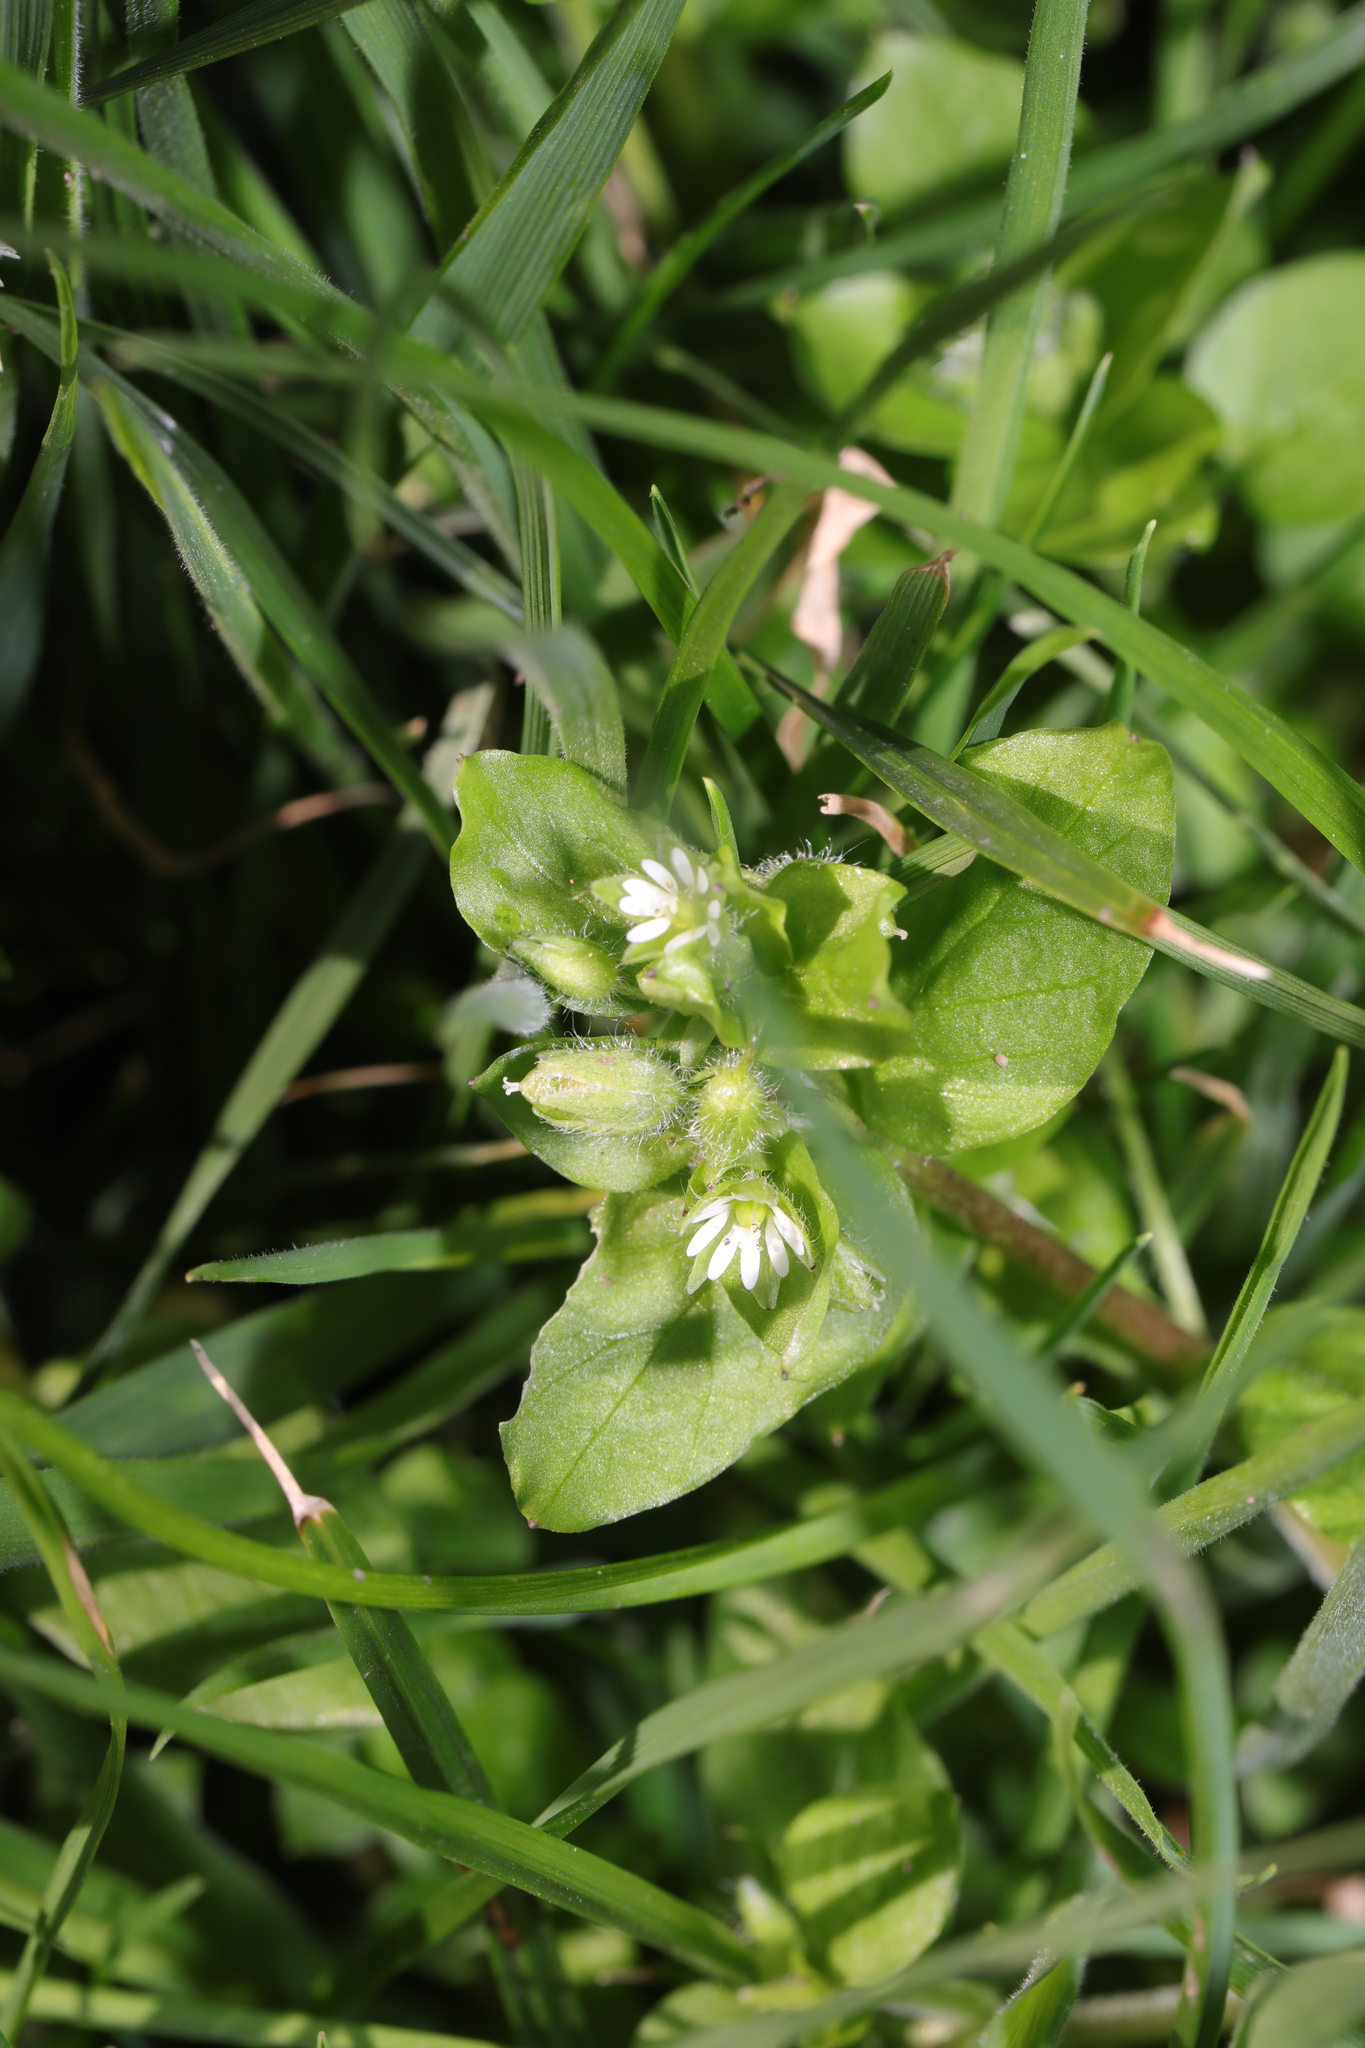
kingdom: Plantae
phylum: Tracheophyta
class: Magnoliopsida
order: Caryophyllales
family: Caryophyllaceae
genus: Stellaria
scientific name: Stellaria media
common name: Common chickweed
